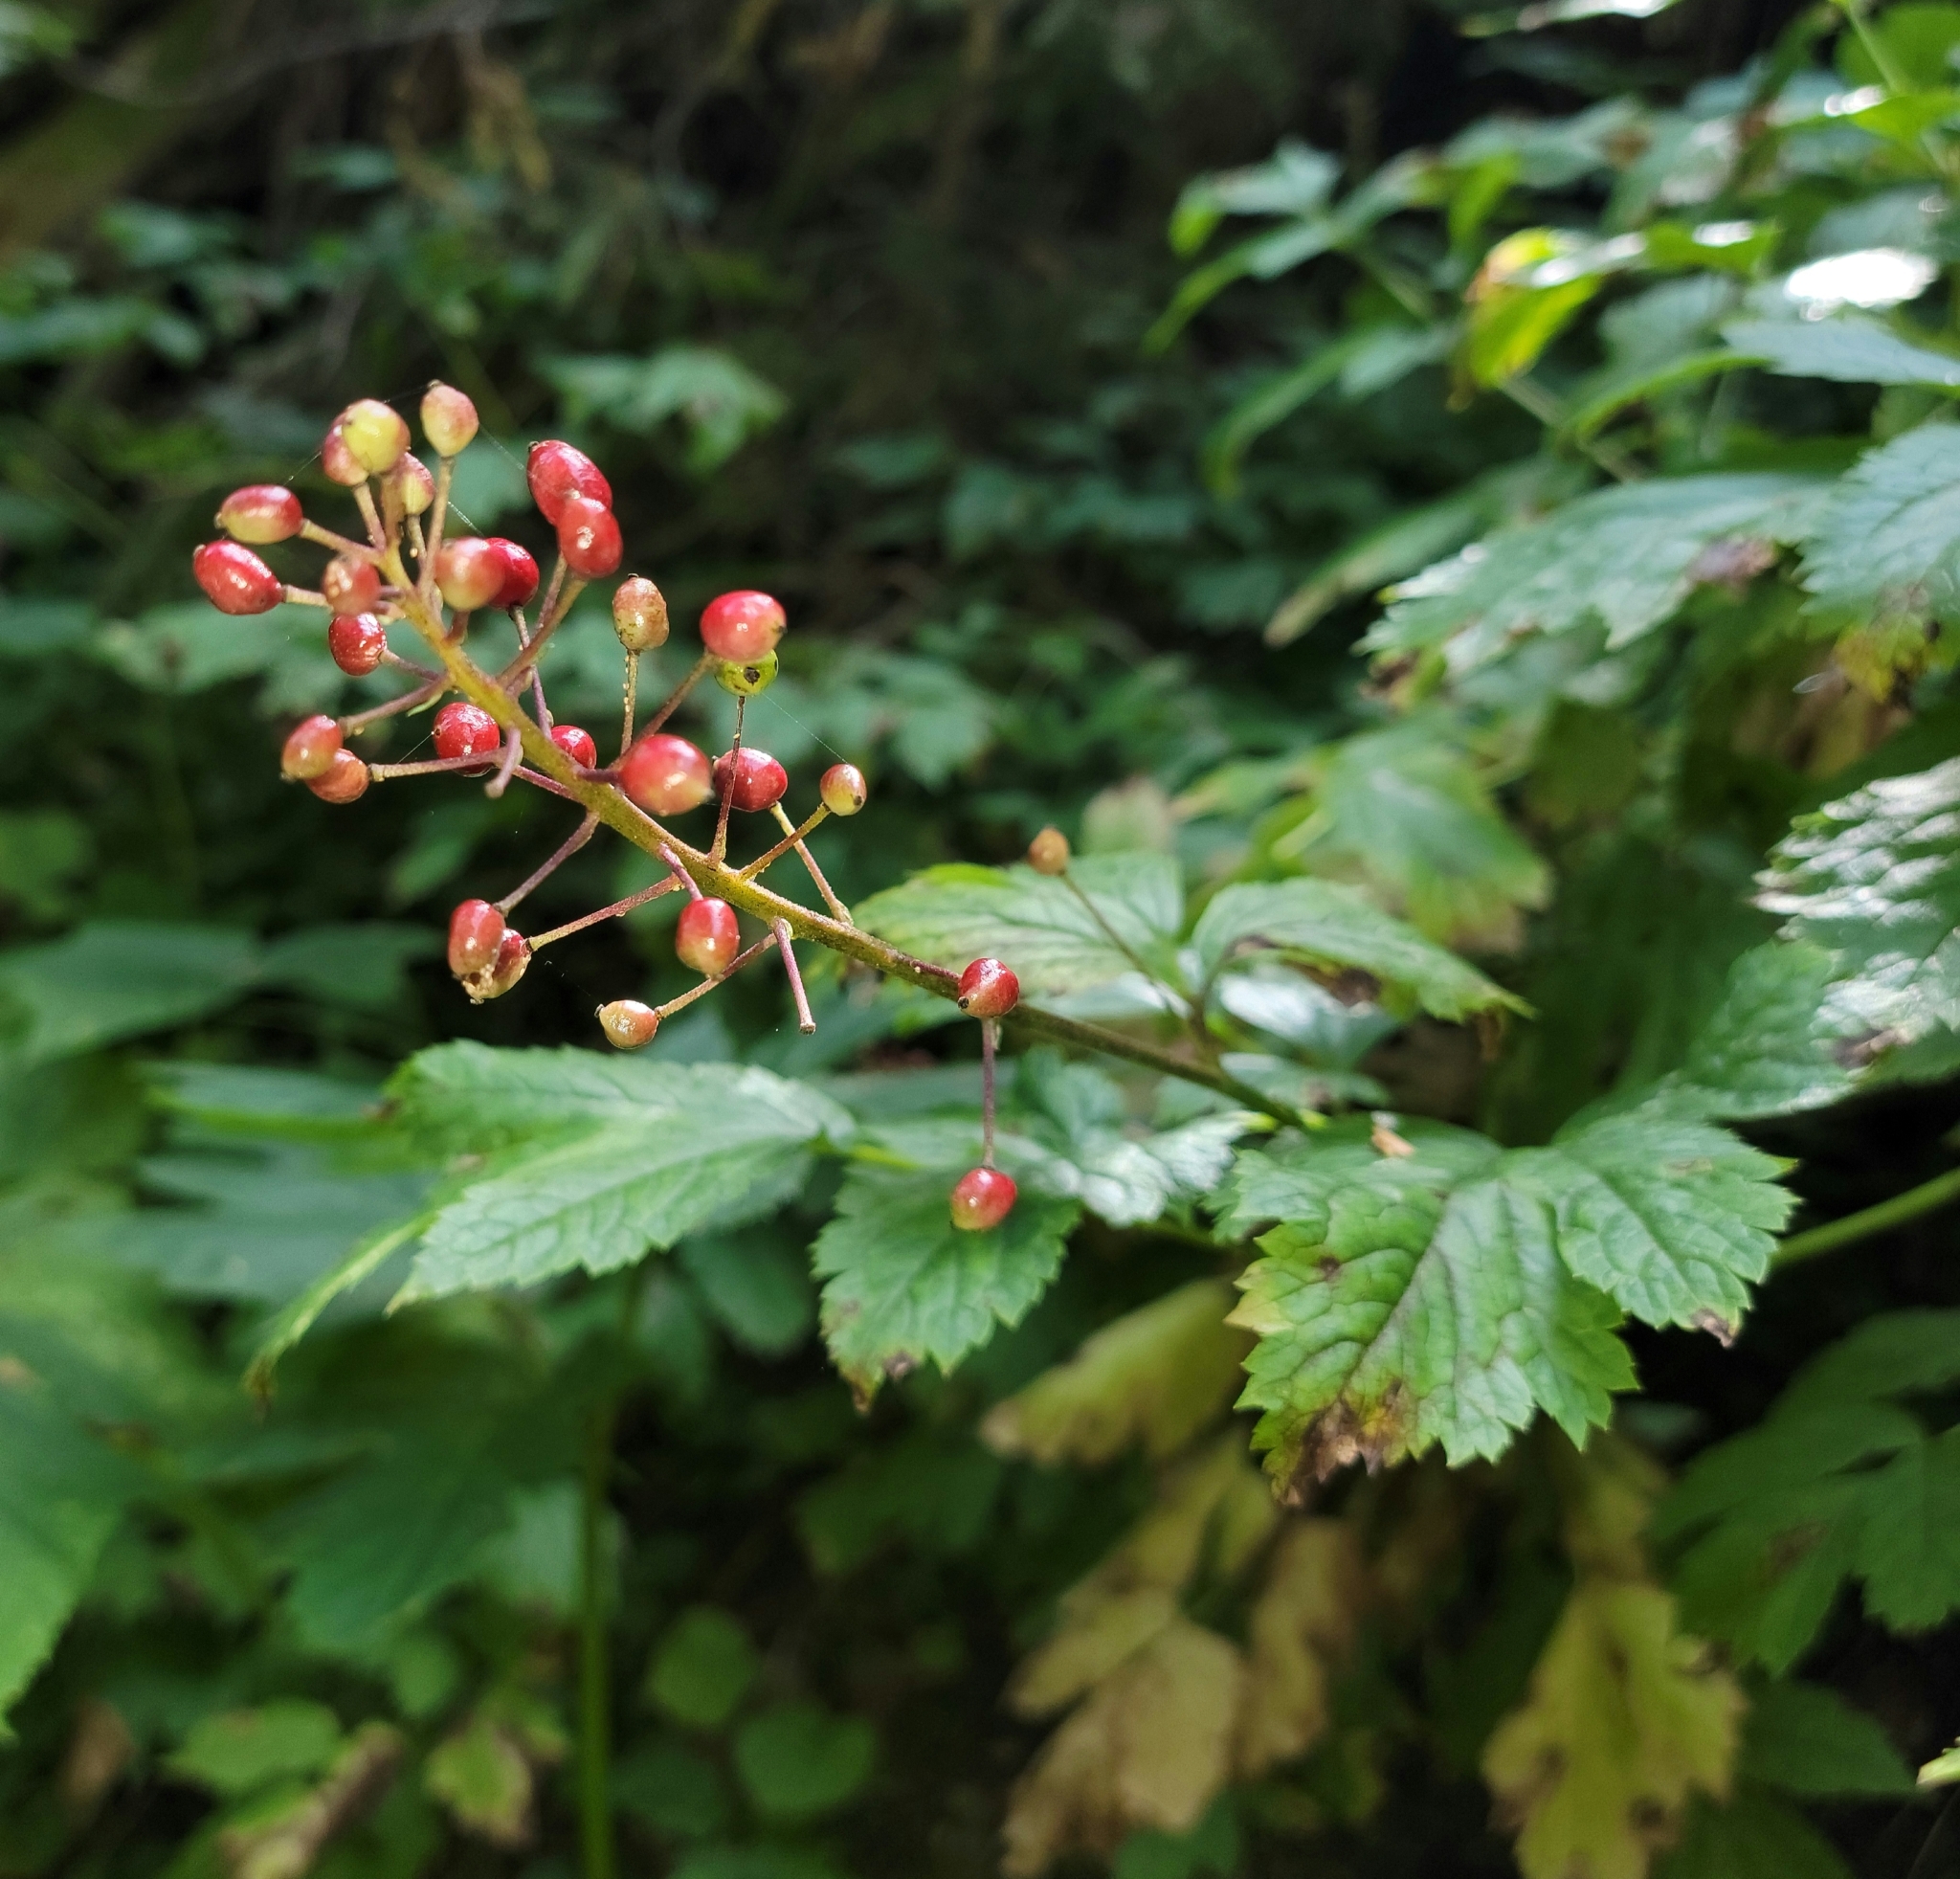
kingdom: Plantae
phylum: Tracheophyta
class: Magnoliopsida
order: Ranunculales
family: Ranunculaceae
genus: Actaea
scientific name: Actaea rubra
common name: Red baneberry
